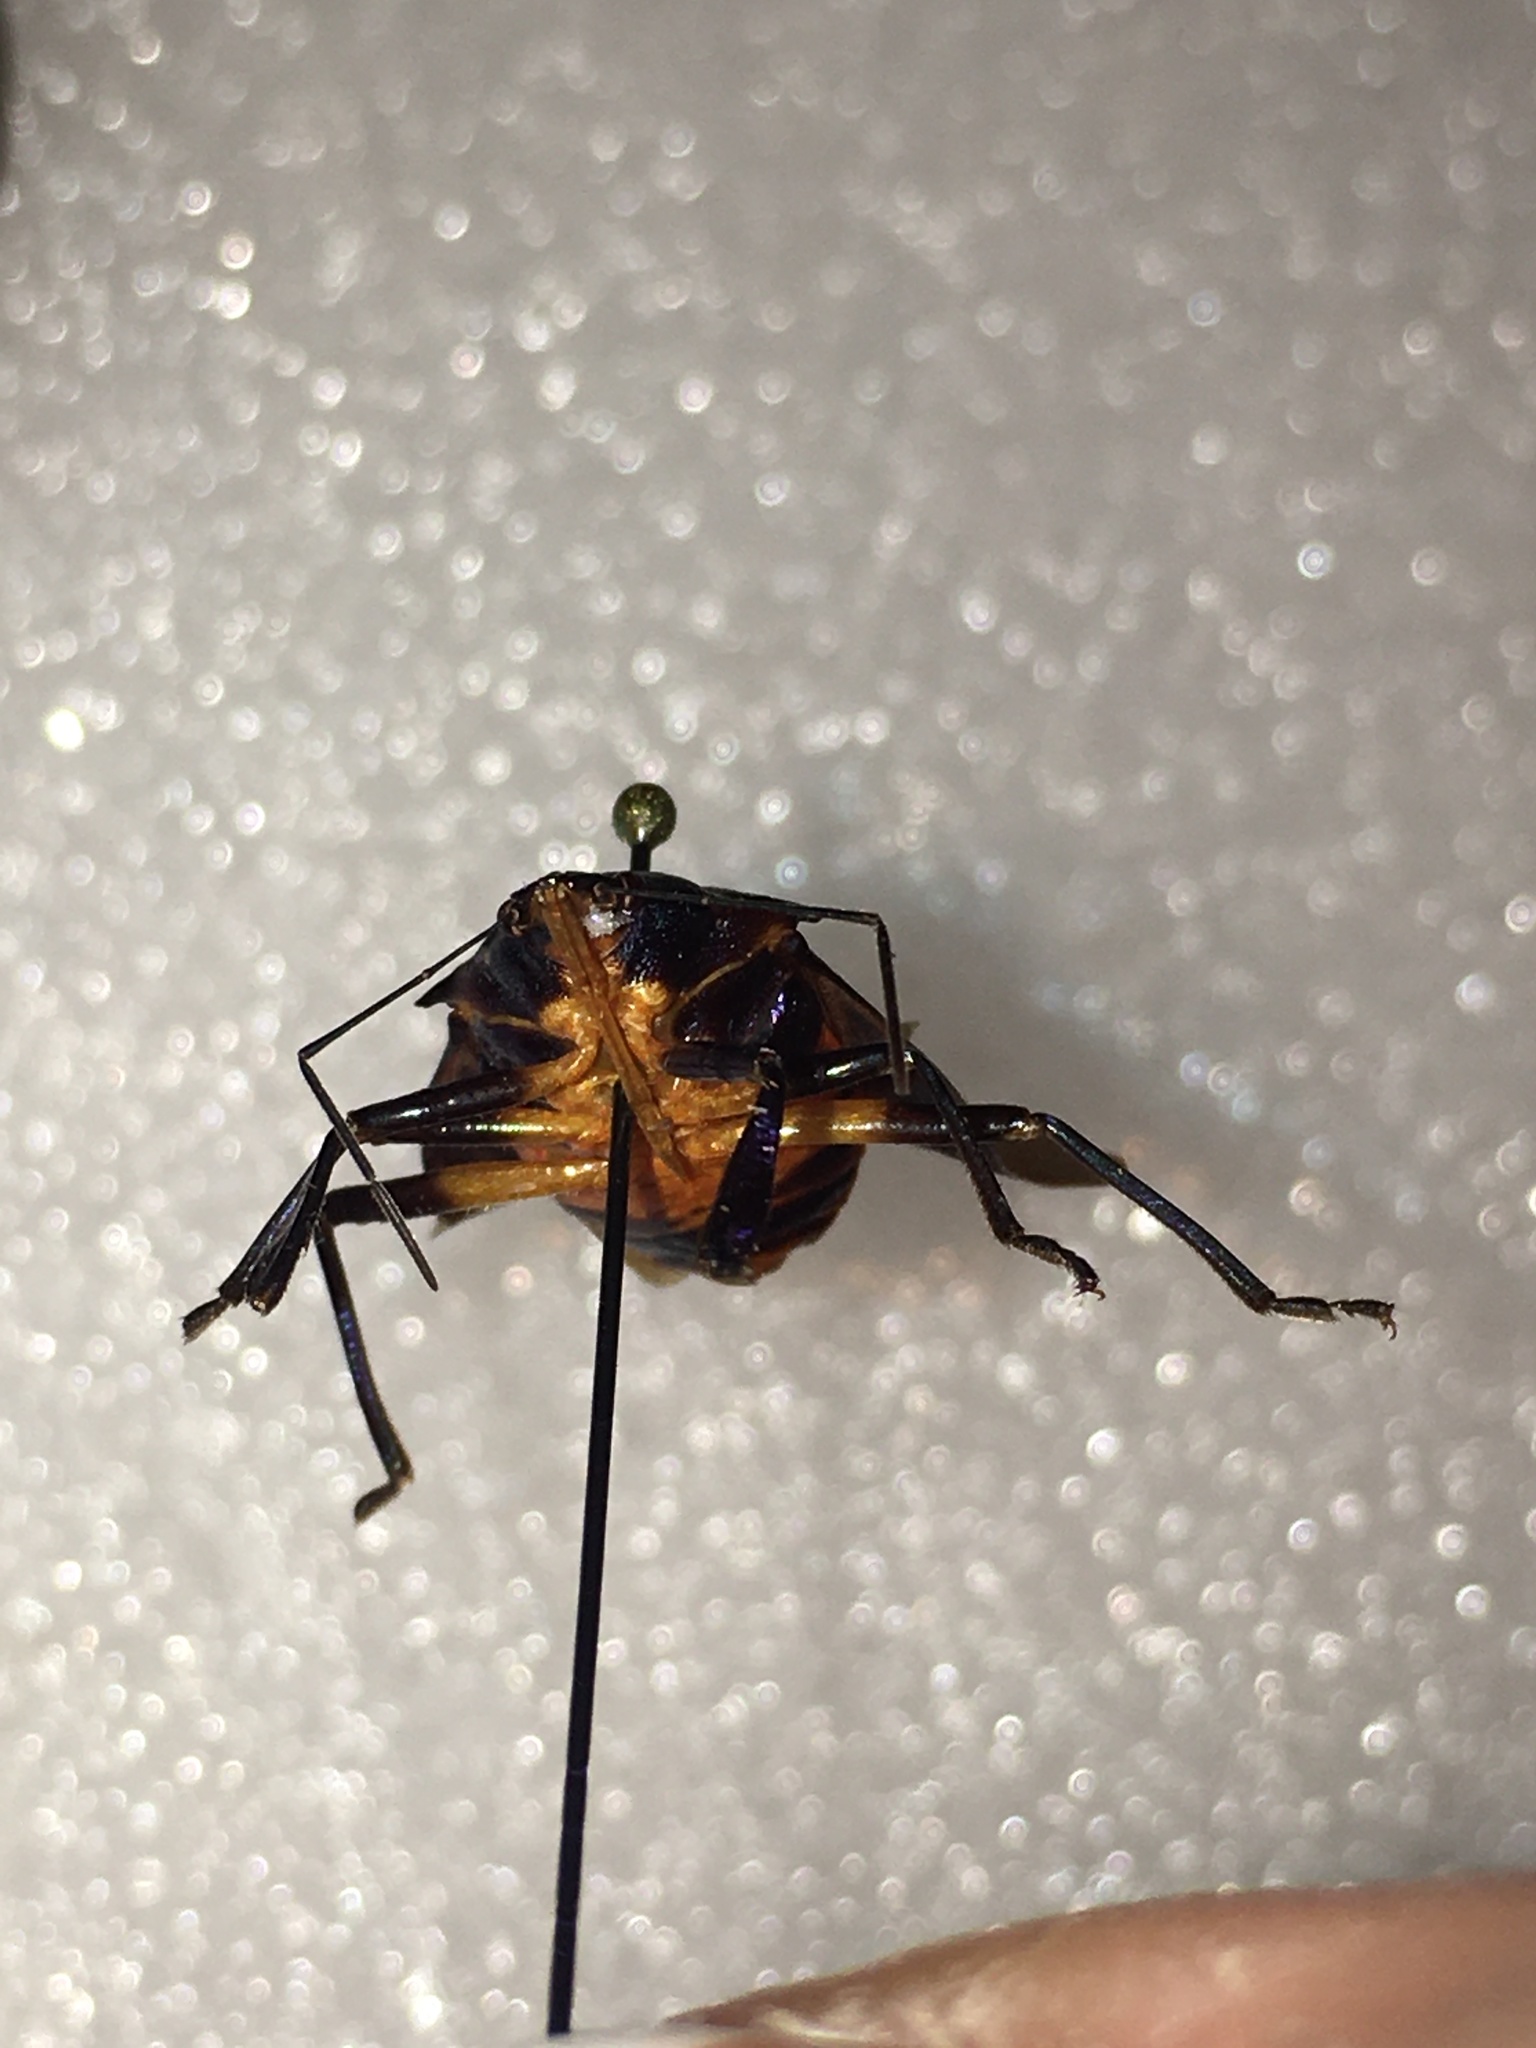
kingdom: Animalia
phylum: Arthropoda
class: Insecta
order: Hemiptera
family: Pentatomidae
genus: Euthyrhynchus
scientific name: Euthyrhynchus floridanus
